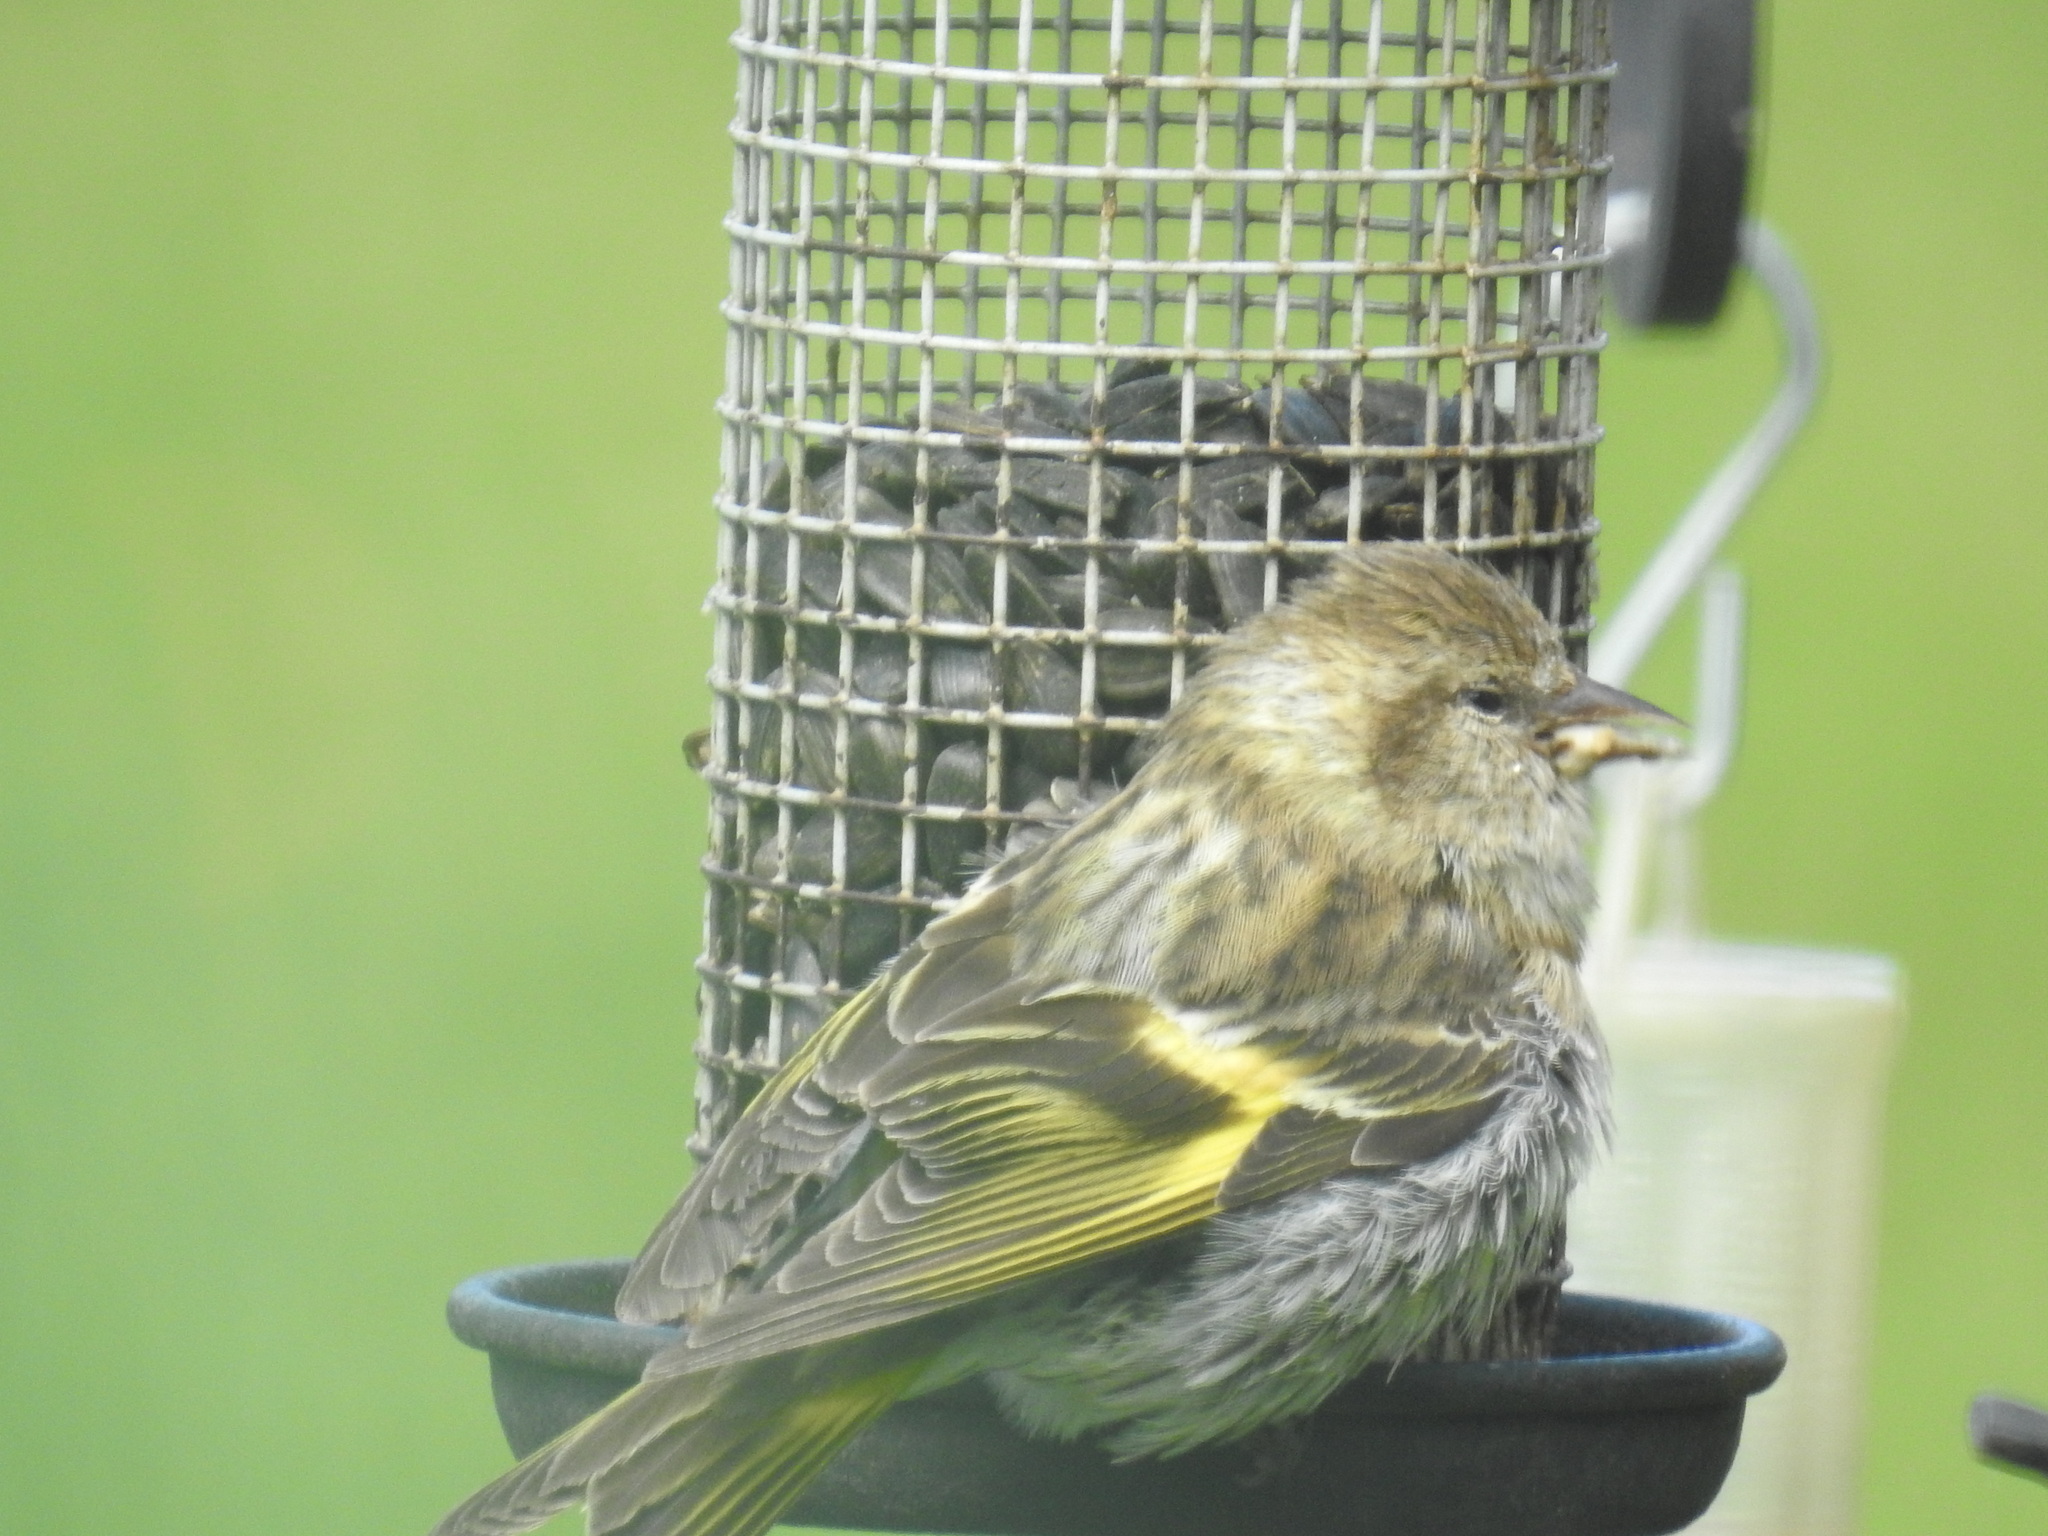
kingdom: Animalia
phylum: Chordata
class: Aves
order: Passeriformes
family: Fringillidae
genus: Spinus
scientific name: Spinus pinus
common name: Pine siskin
